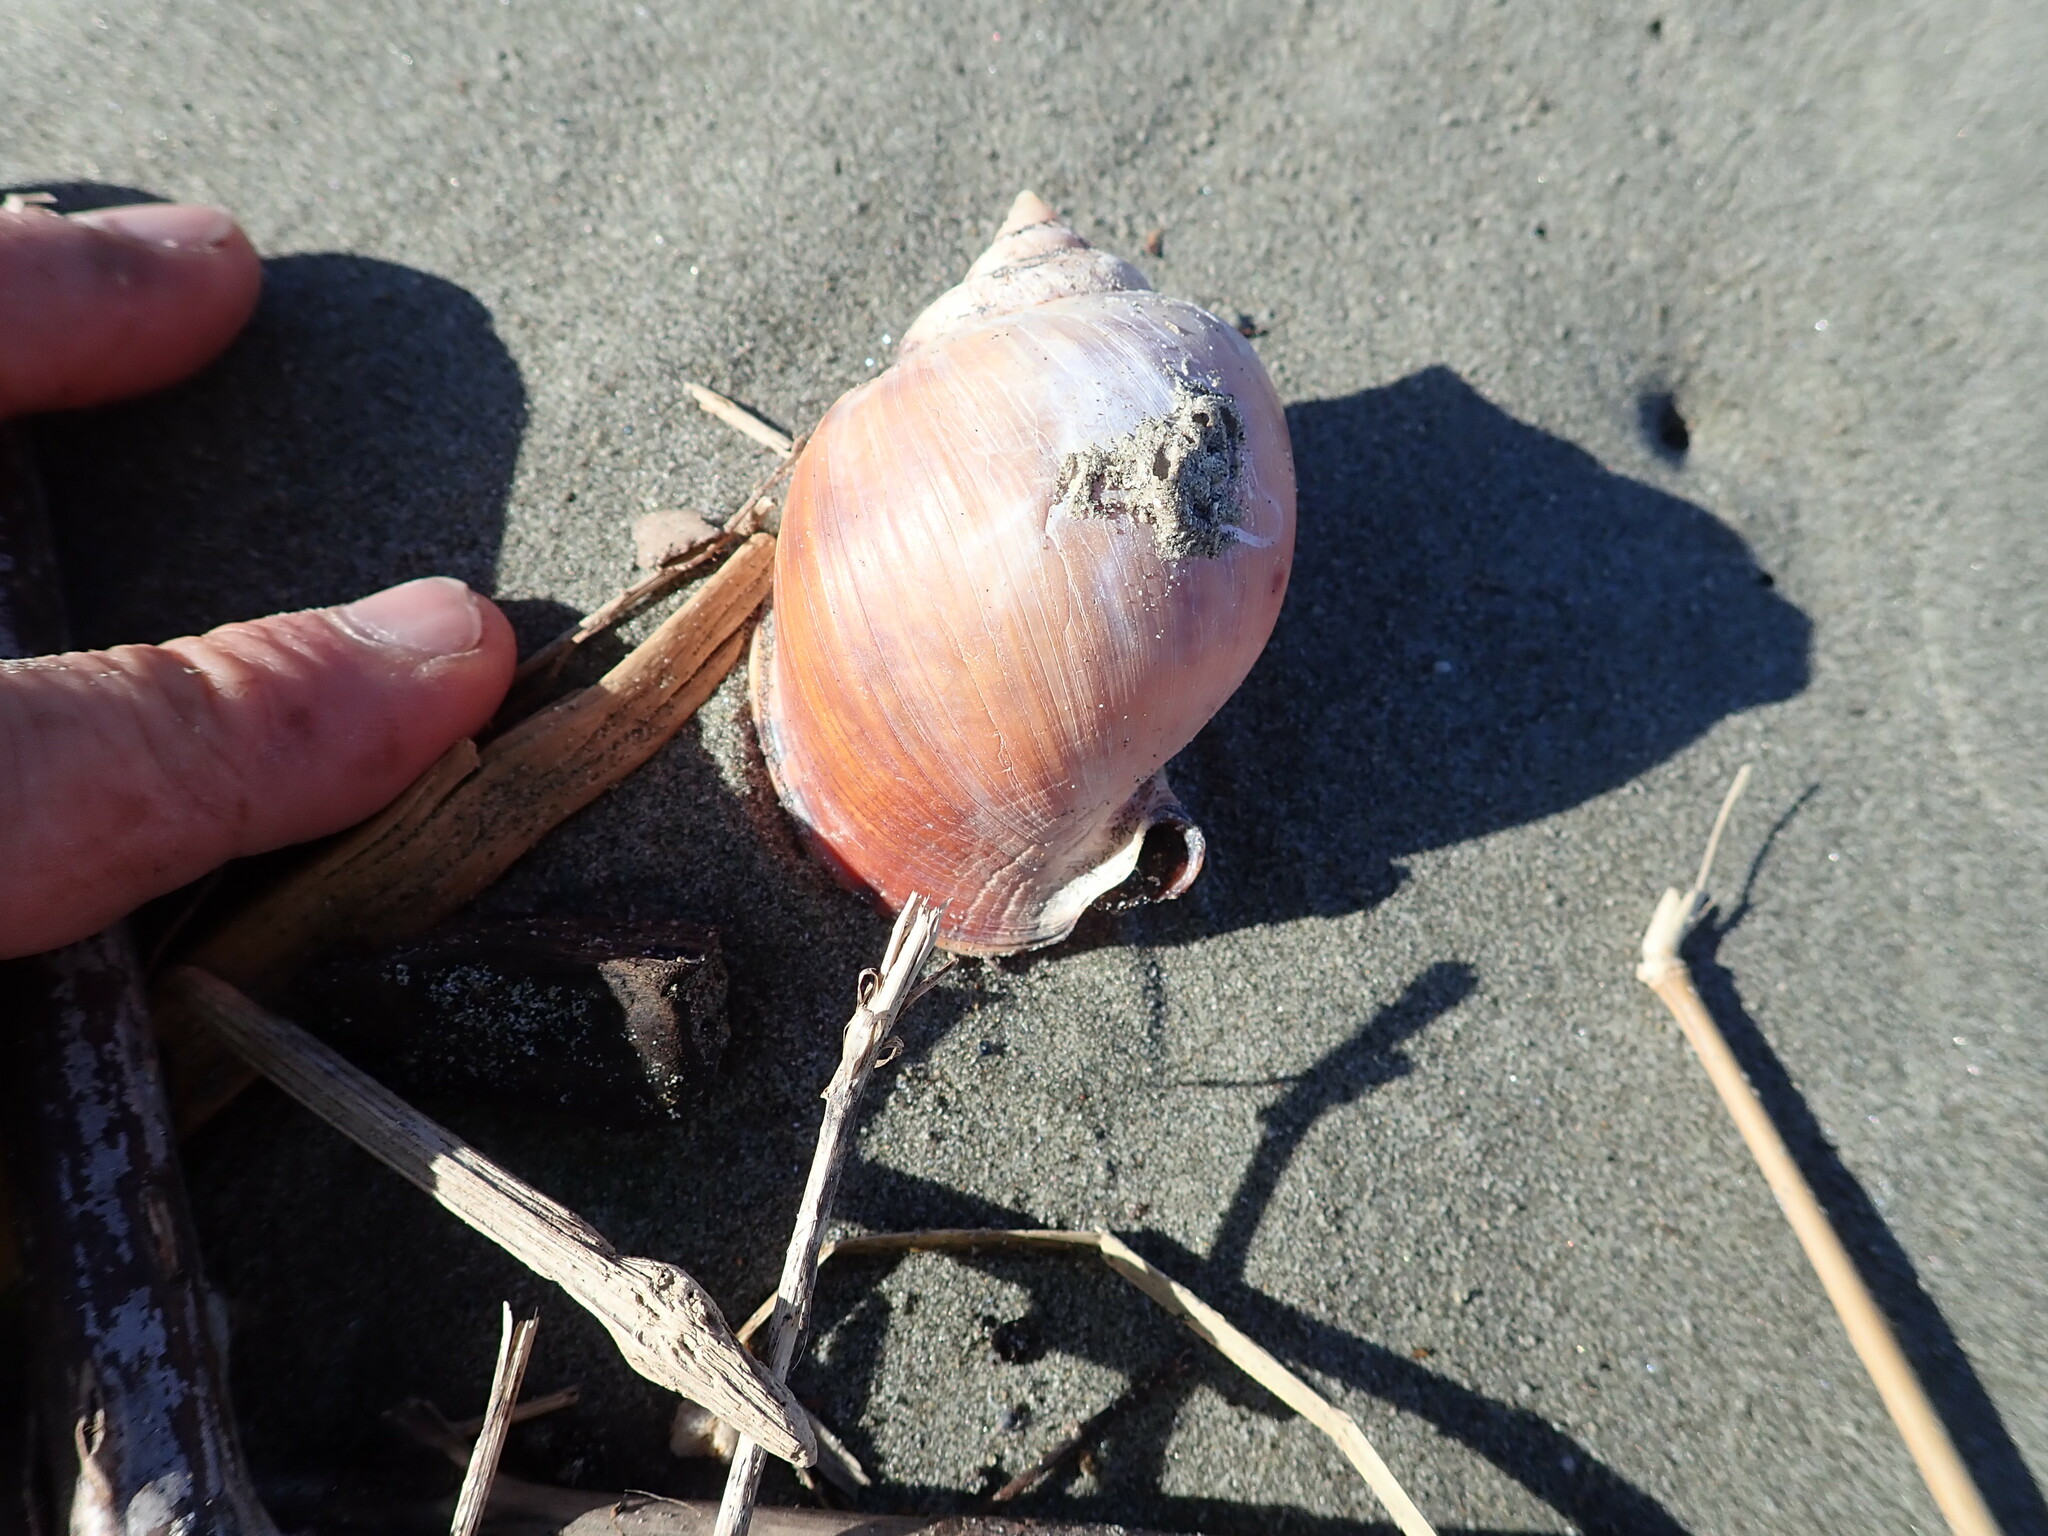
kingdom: Animalia
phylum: Mollusca
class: Gastropoda
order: Littorinimorpha
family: Cassidae
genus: Semicassis
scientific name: Semicassis pyrum
